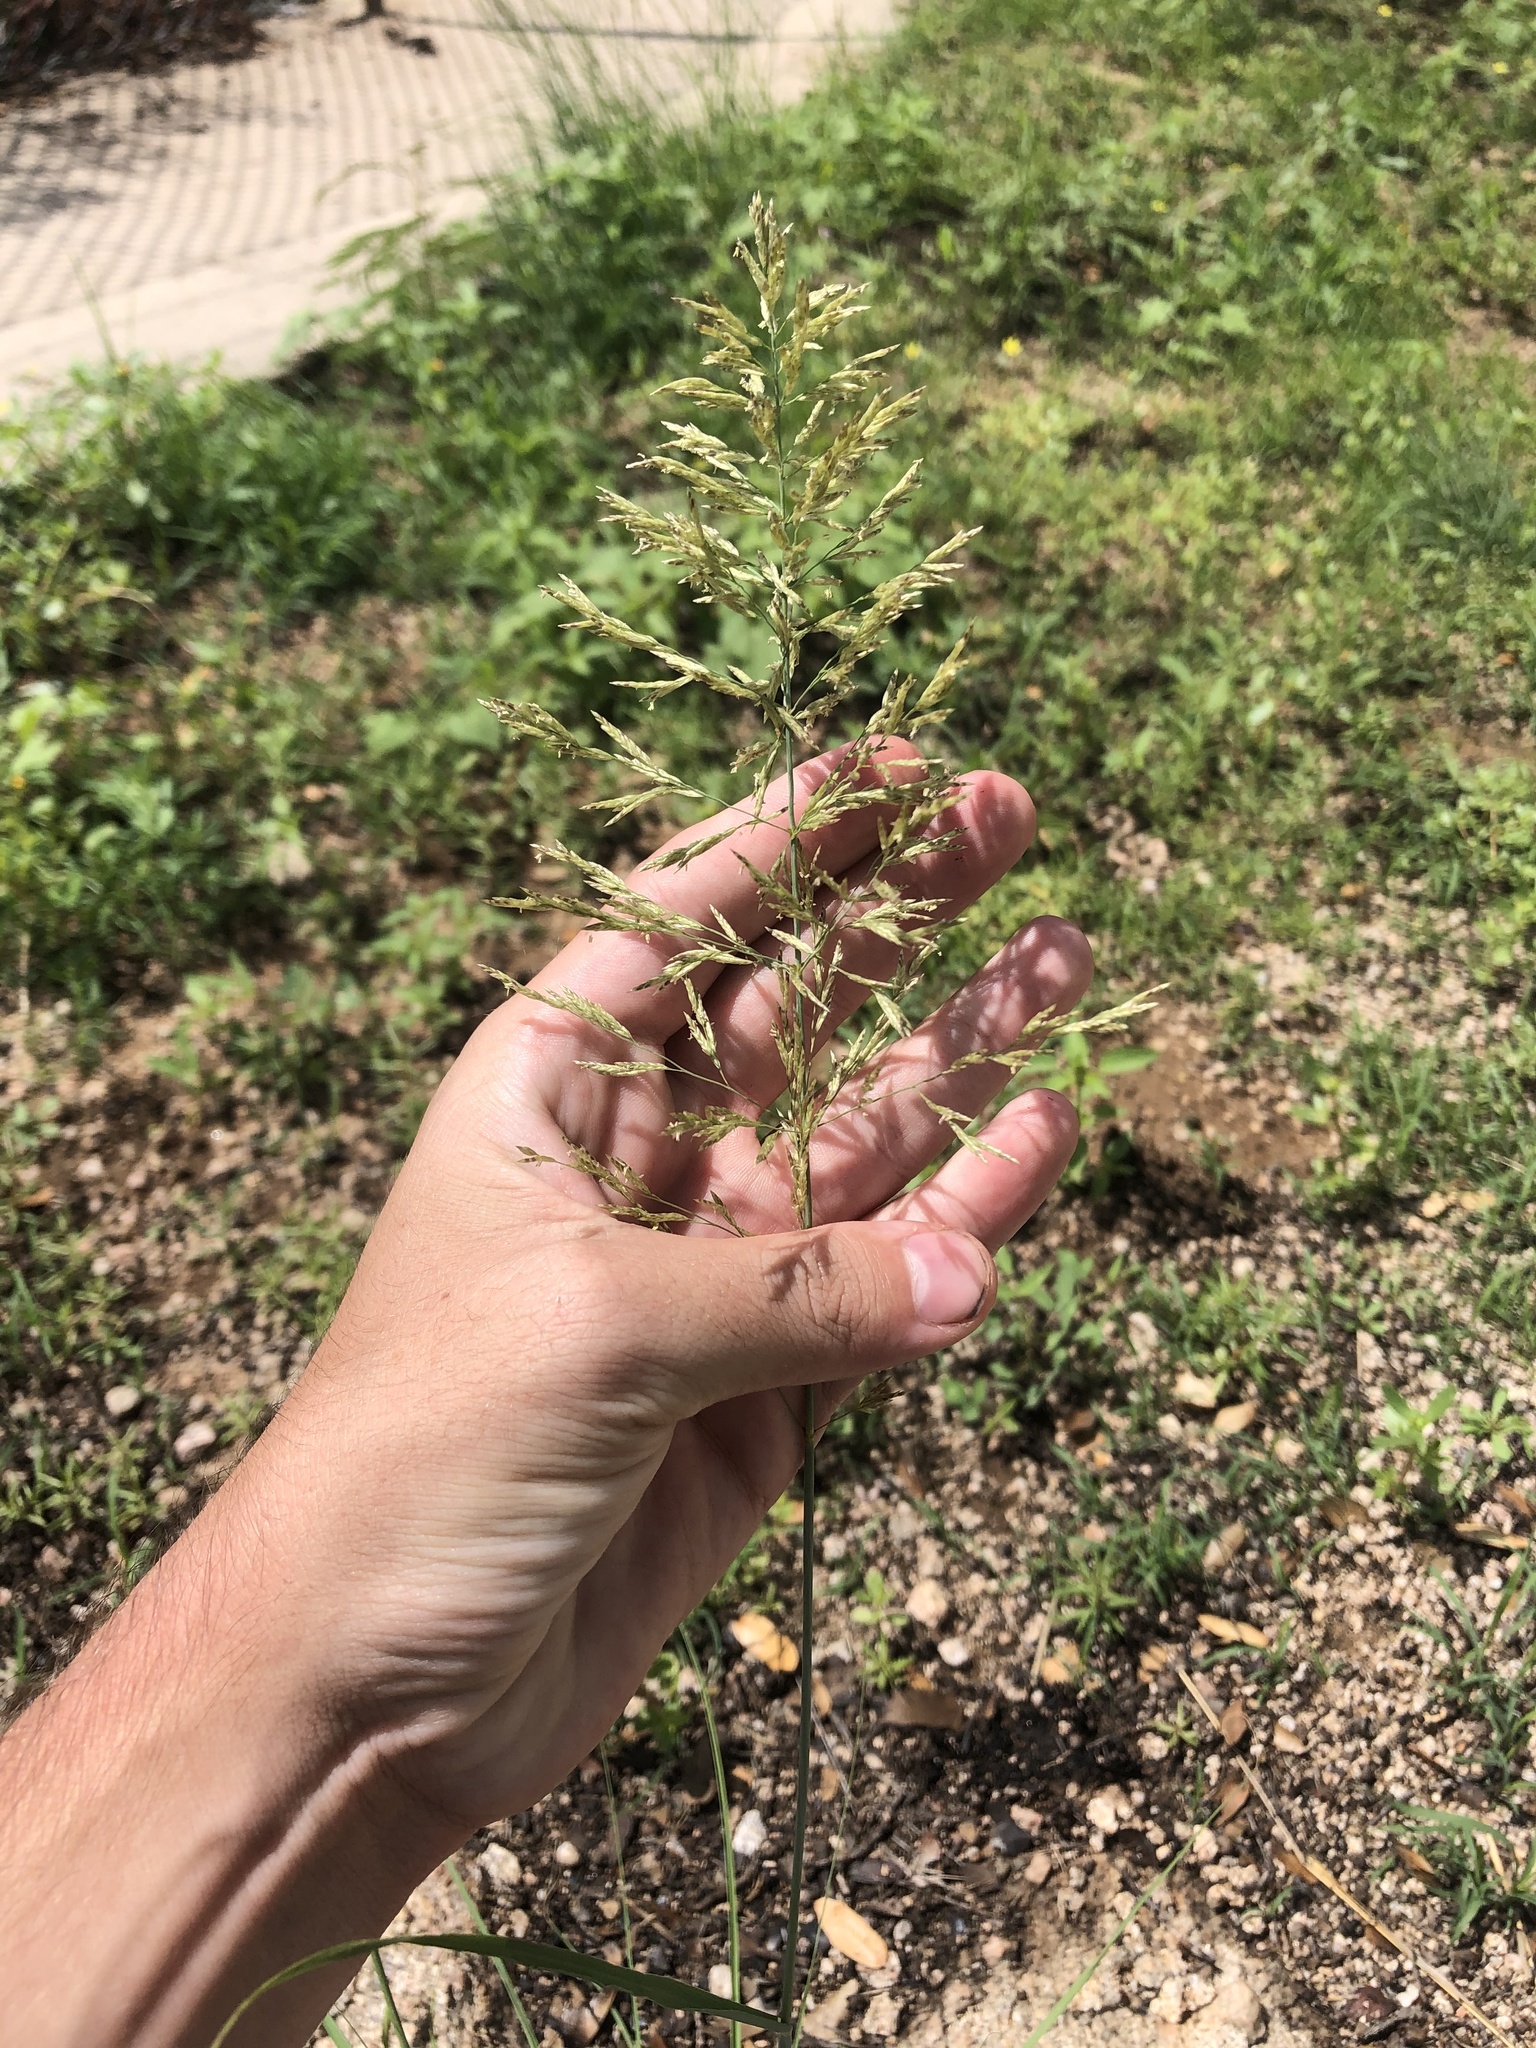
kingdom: Plantae
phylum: Tracheophyta
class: Liliopsida
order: Poales
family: Poaceae
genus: Eragrostis
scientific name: Eragrostis lehmanniana
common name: Lehmann lovegrass
